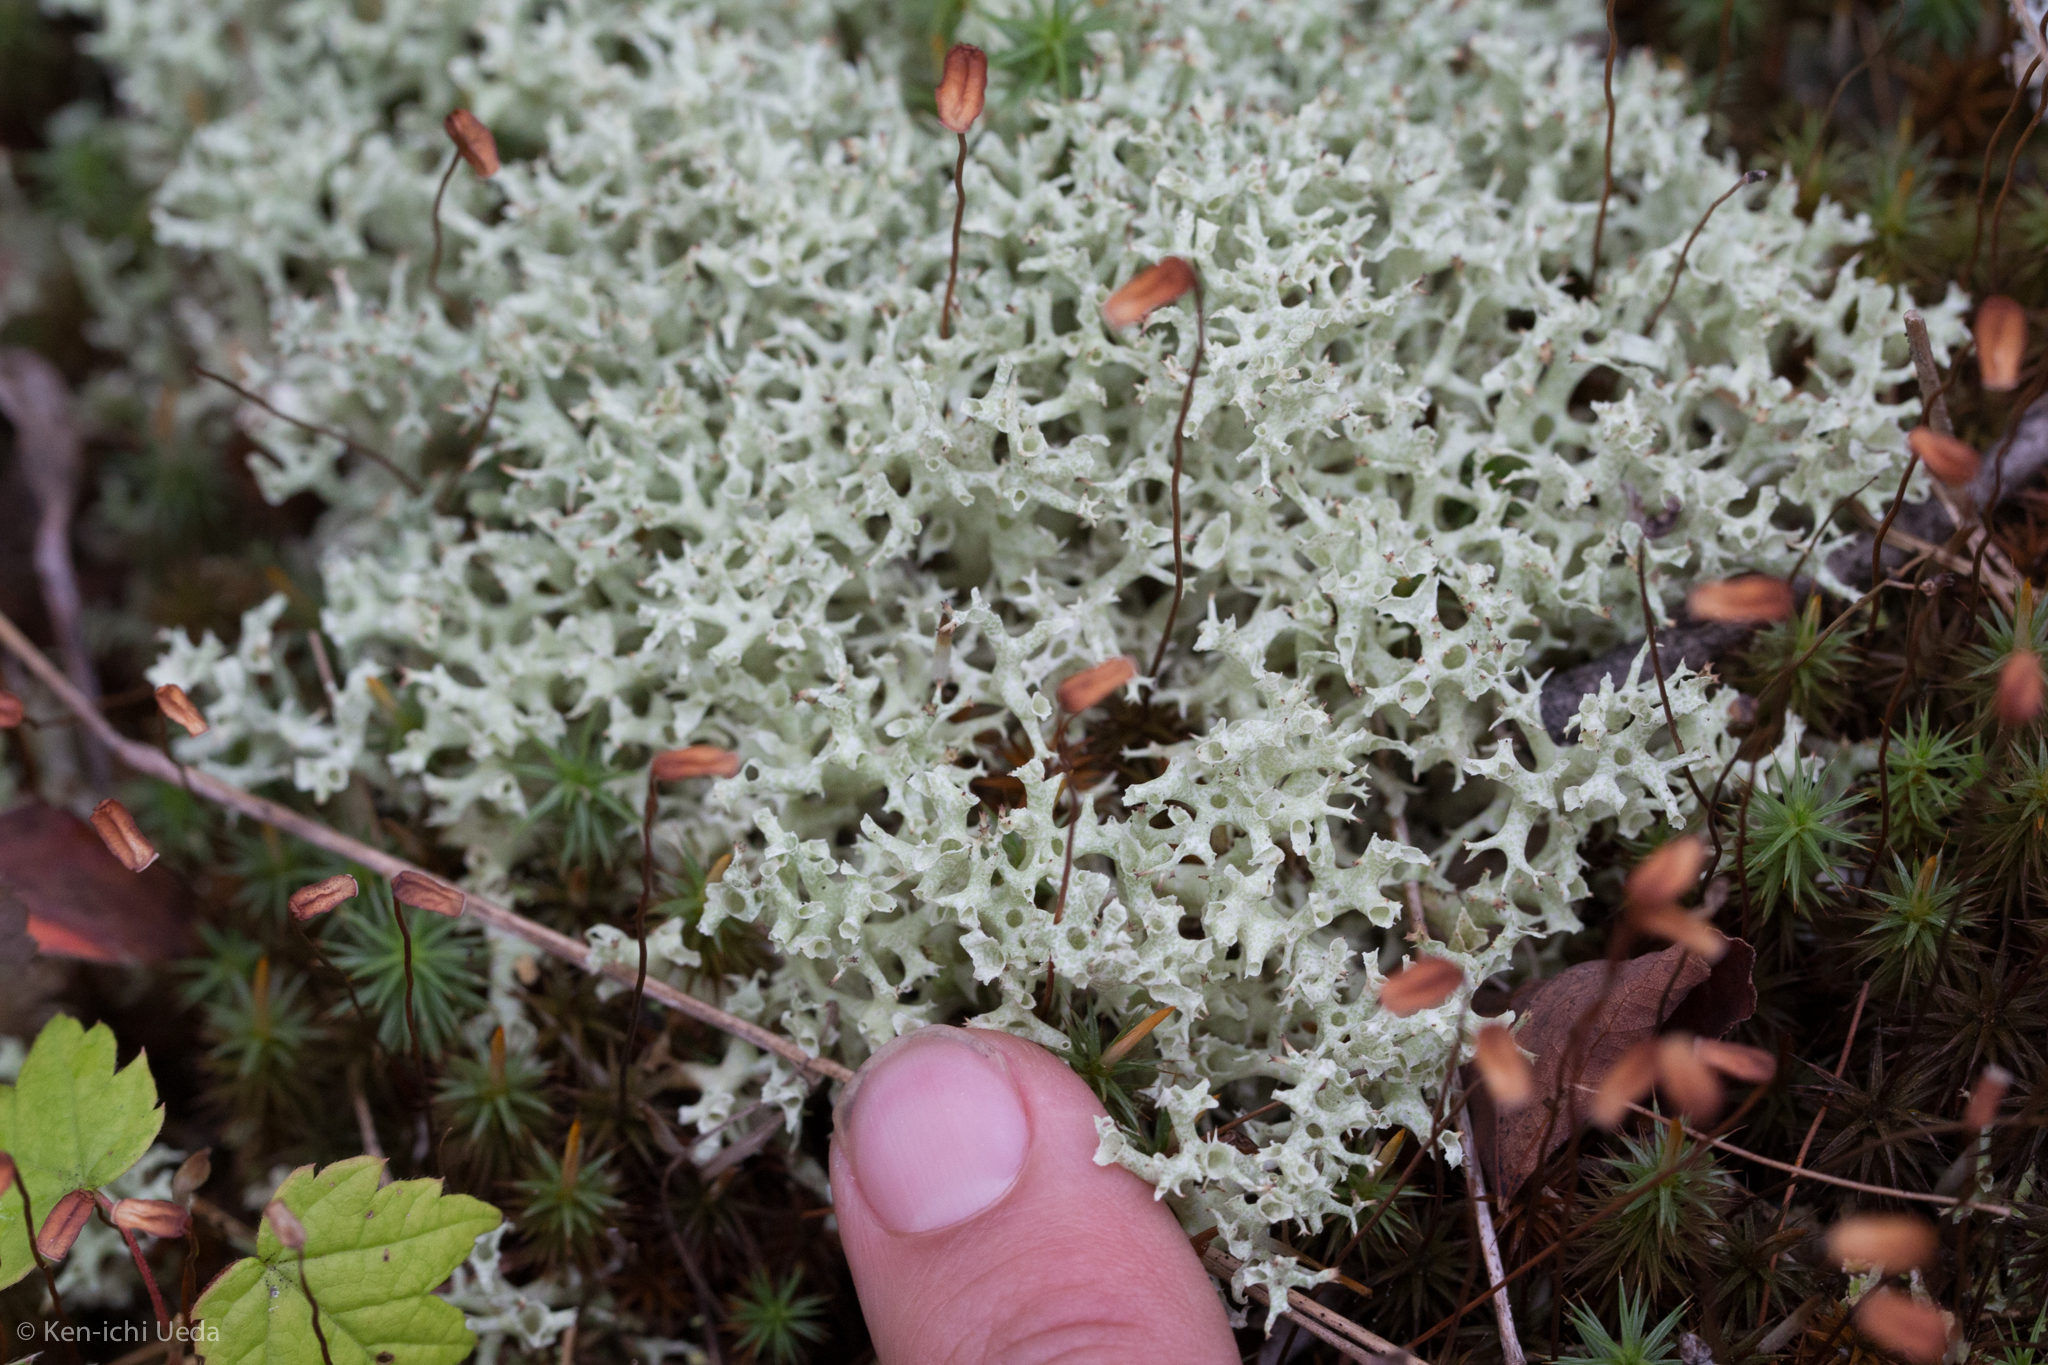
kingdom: Fungi
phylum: Ascomycota
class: Lecanoromycetes
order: Lecanorales
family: Cladoniaceae
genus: Cladonia
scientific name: Cladonia uncialis
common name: Thorn lichen
